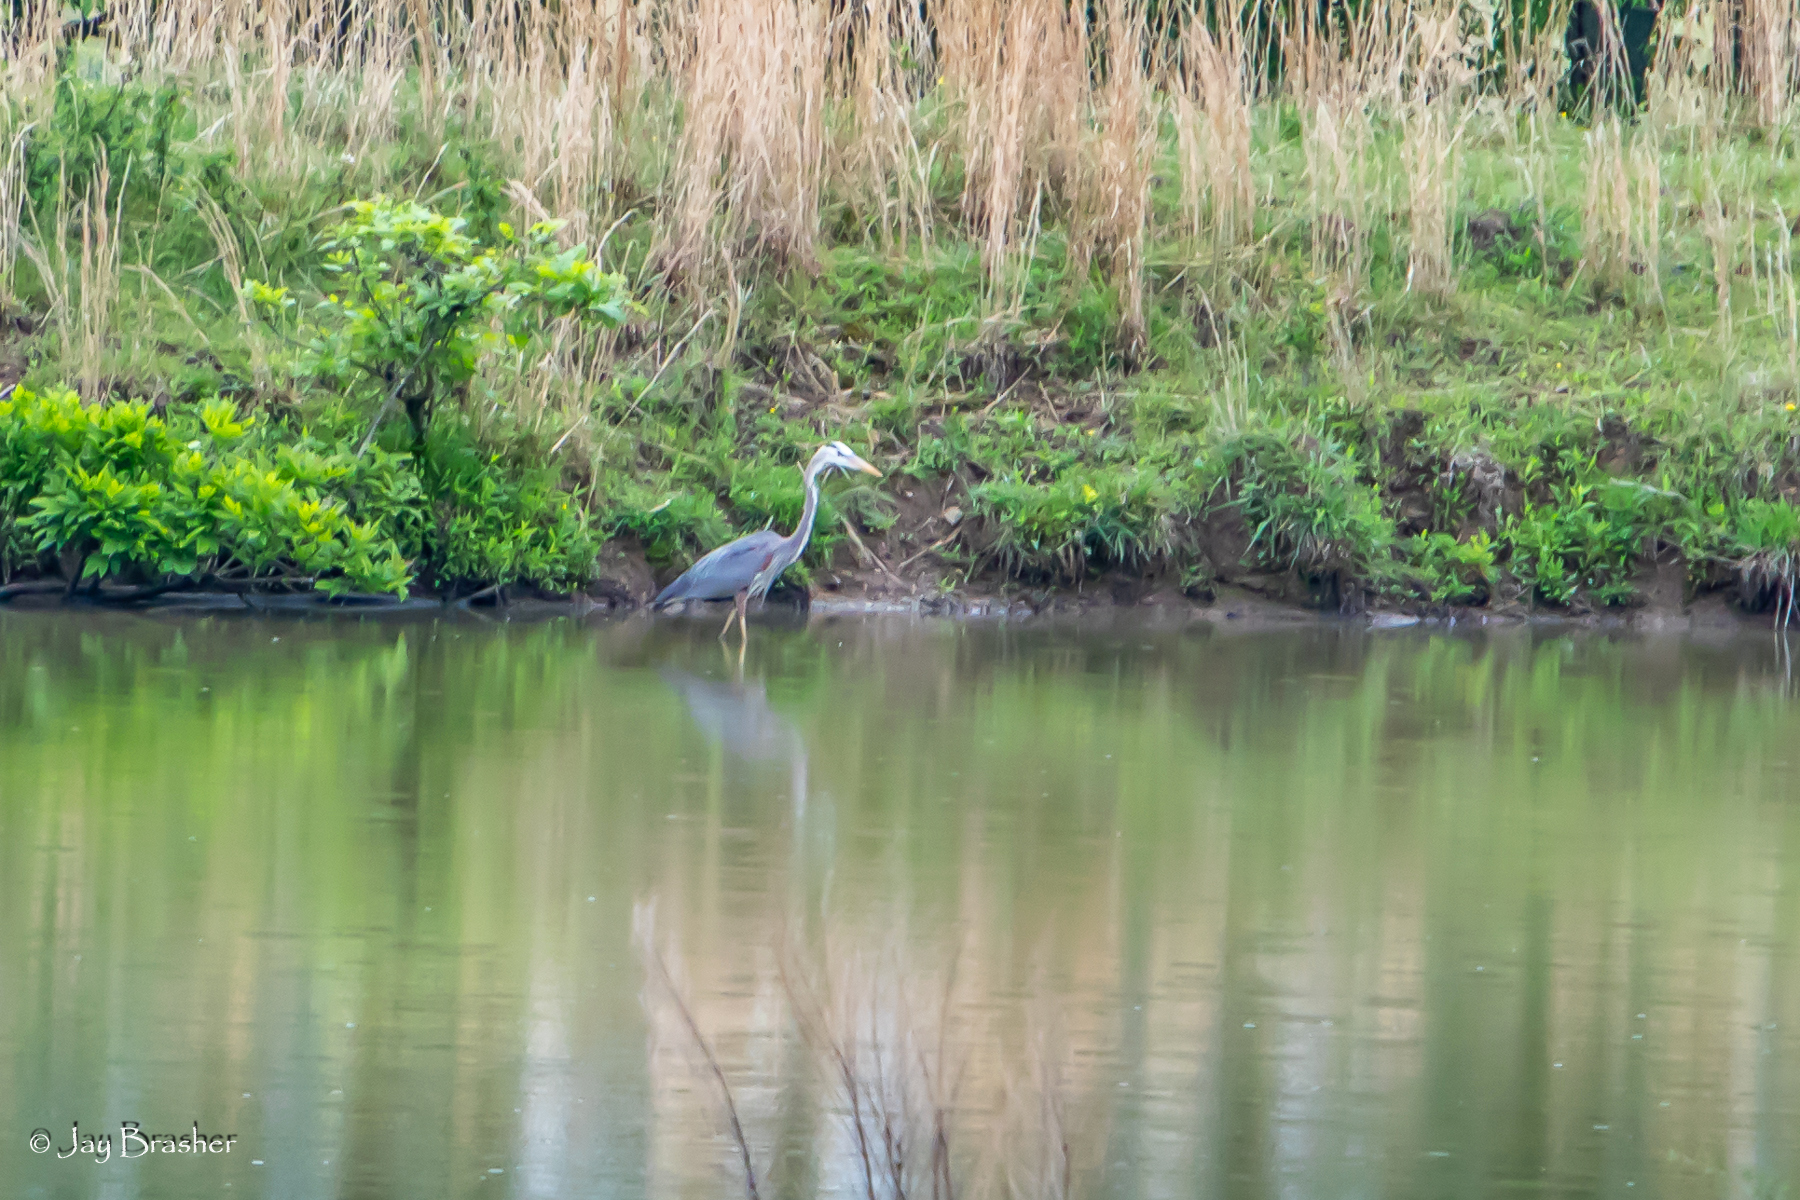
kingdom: Animalia
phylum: Chordata
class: Aves
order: Pelecaniformes
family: Ardeidae
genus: Ardea
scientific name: Ardea herodias
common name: Great blue heron
